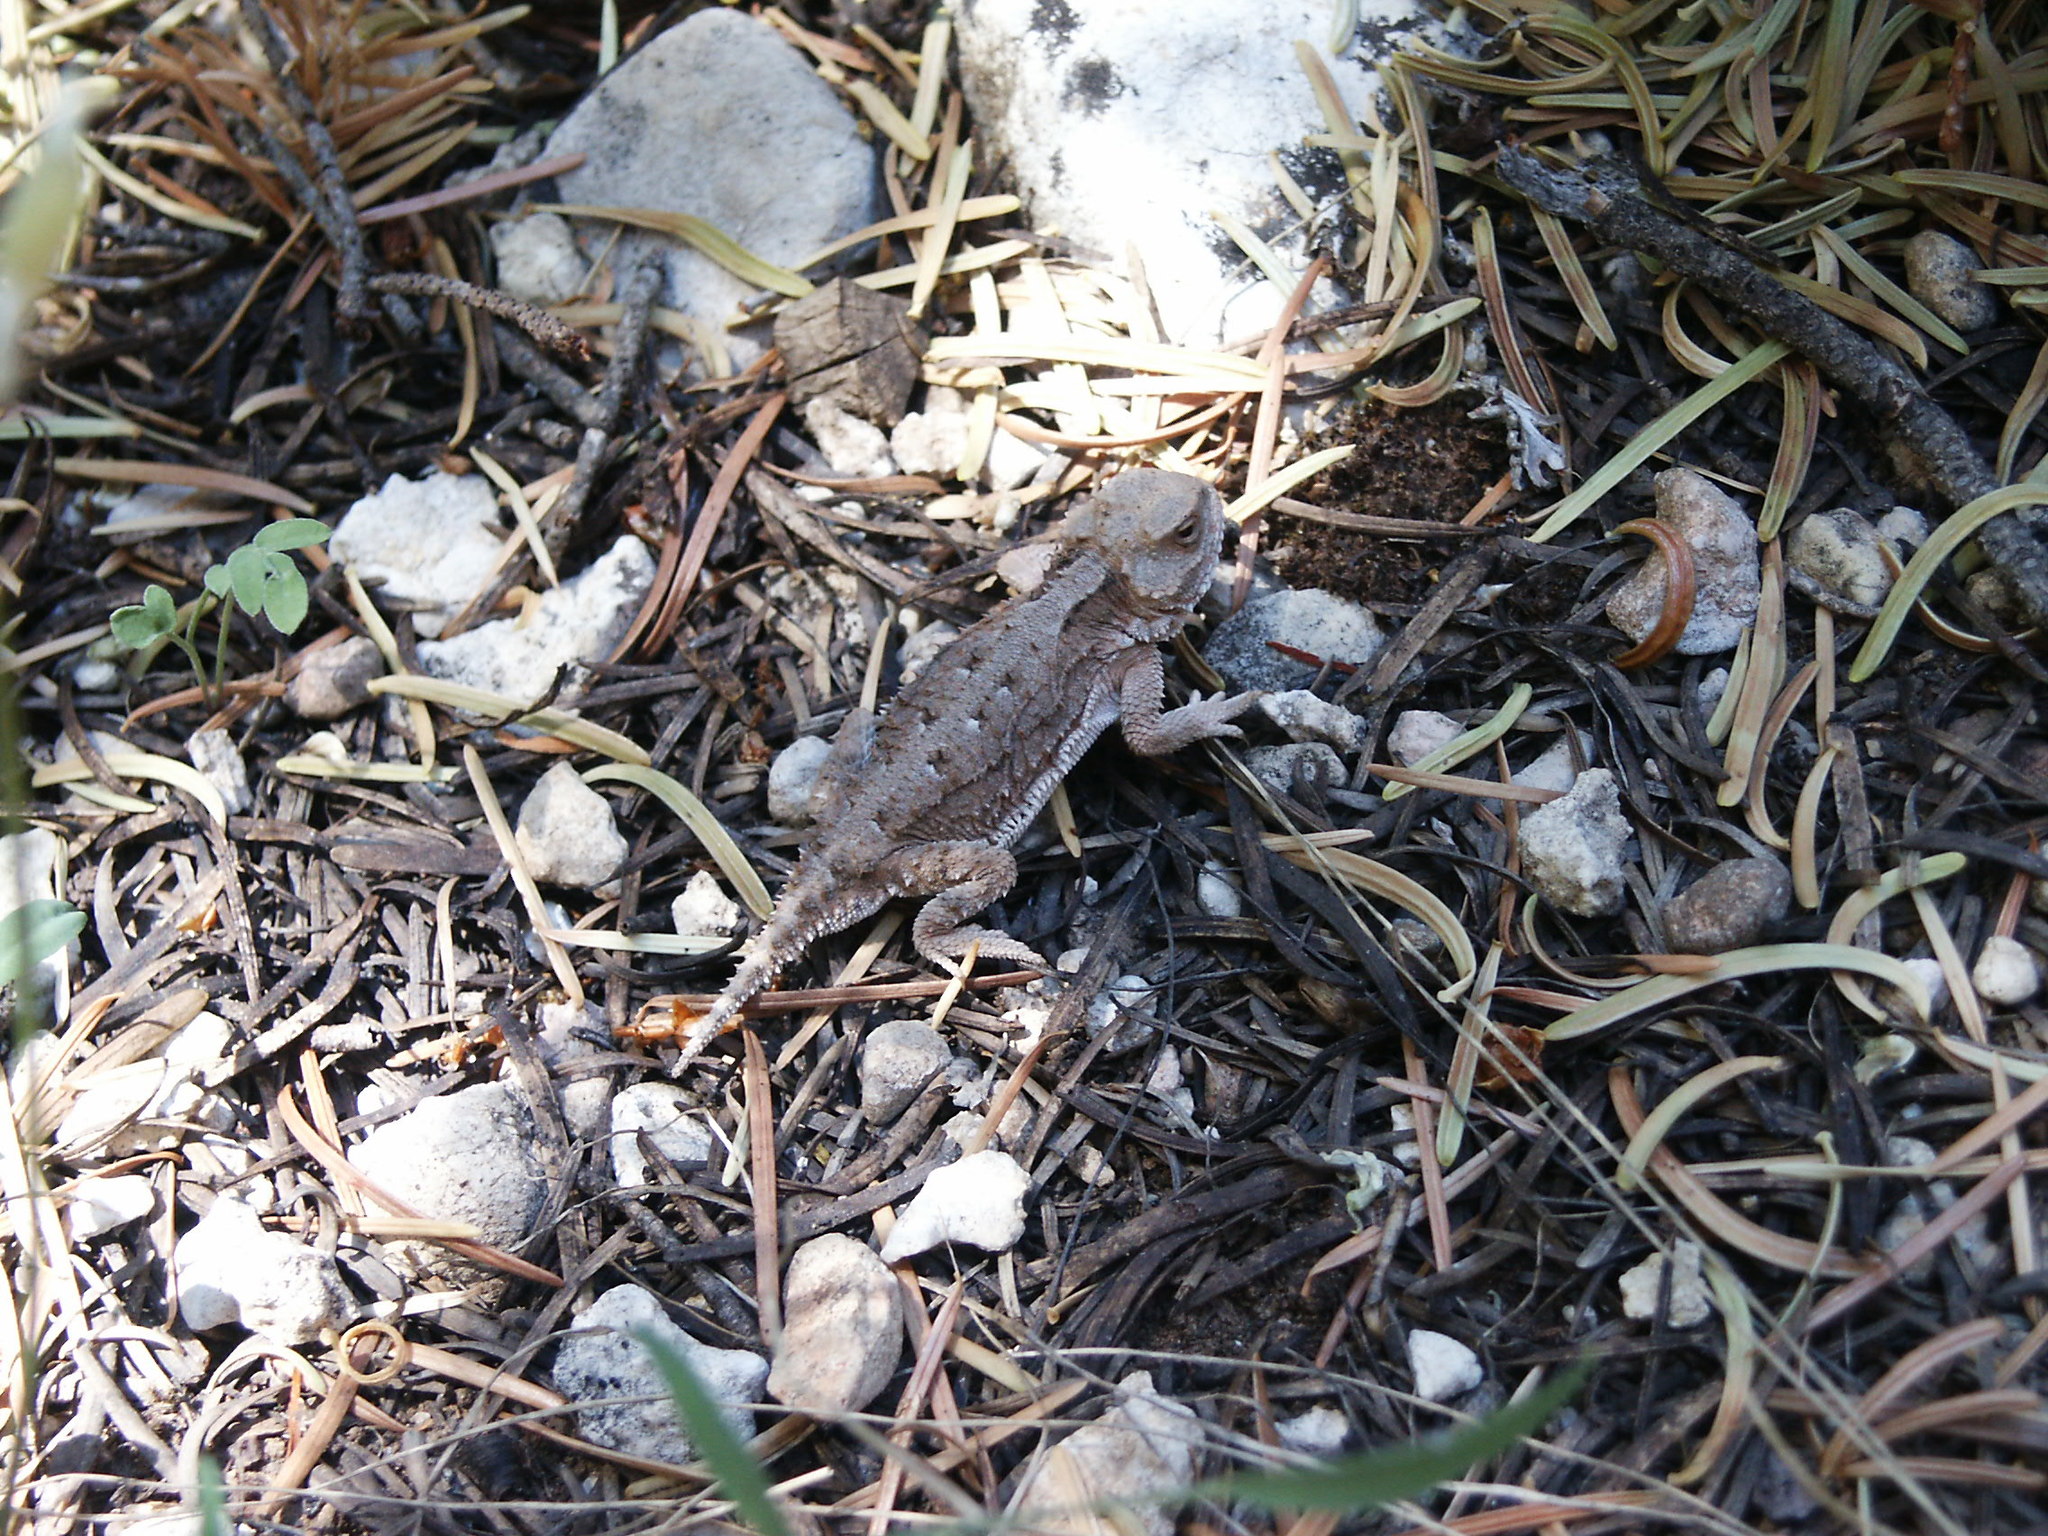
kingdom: Animalia
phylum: Chordata
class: Squamata
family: Phrynosomatidae
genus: Phrynosoma
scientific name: Phrynosoma hernandesi
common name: Greater short-horned lizard
